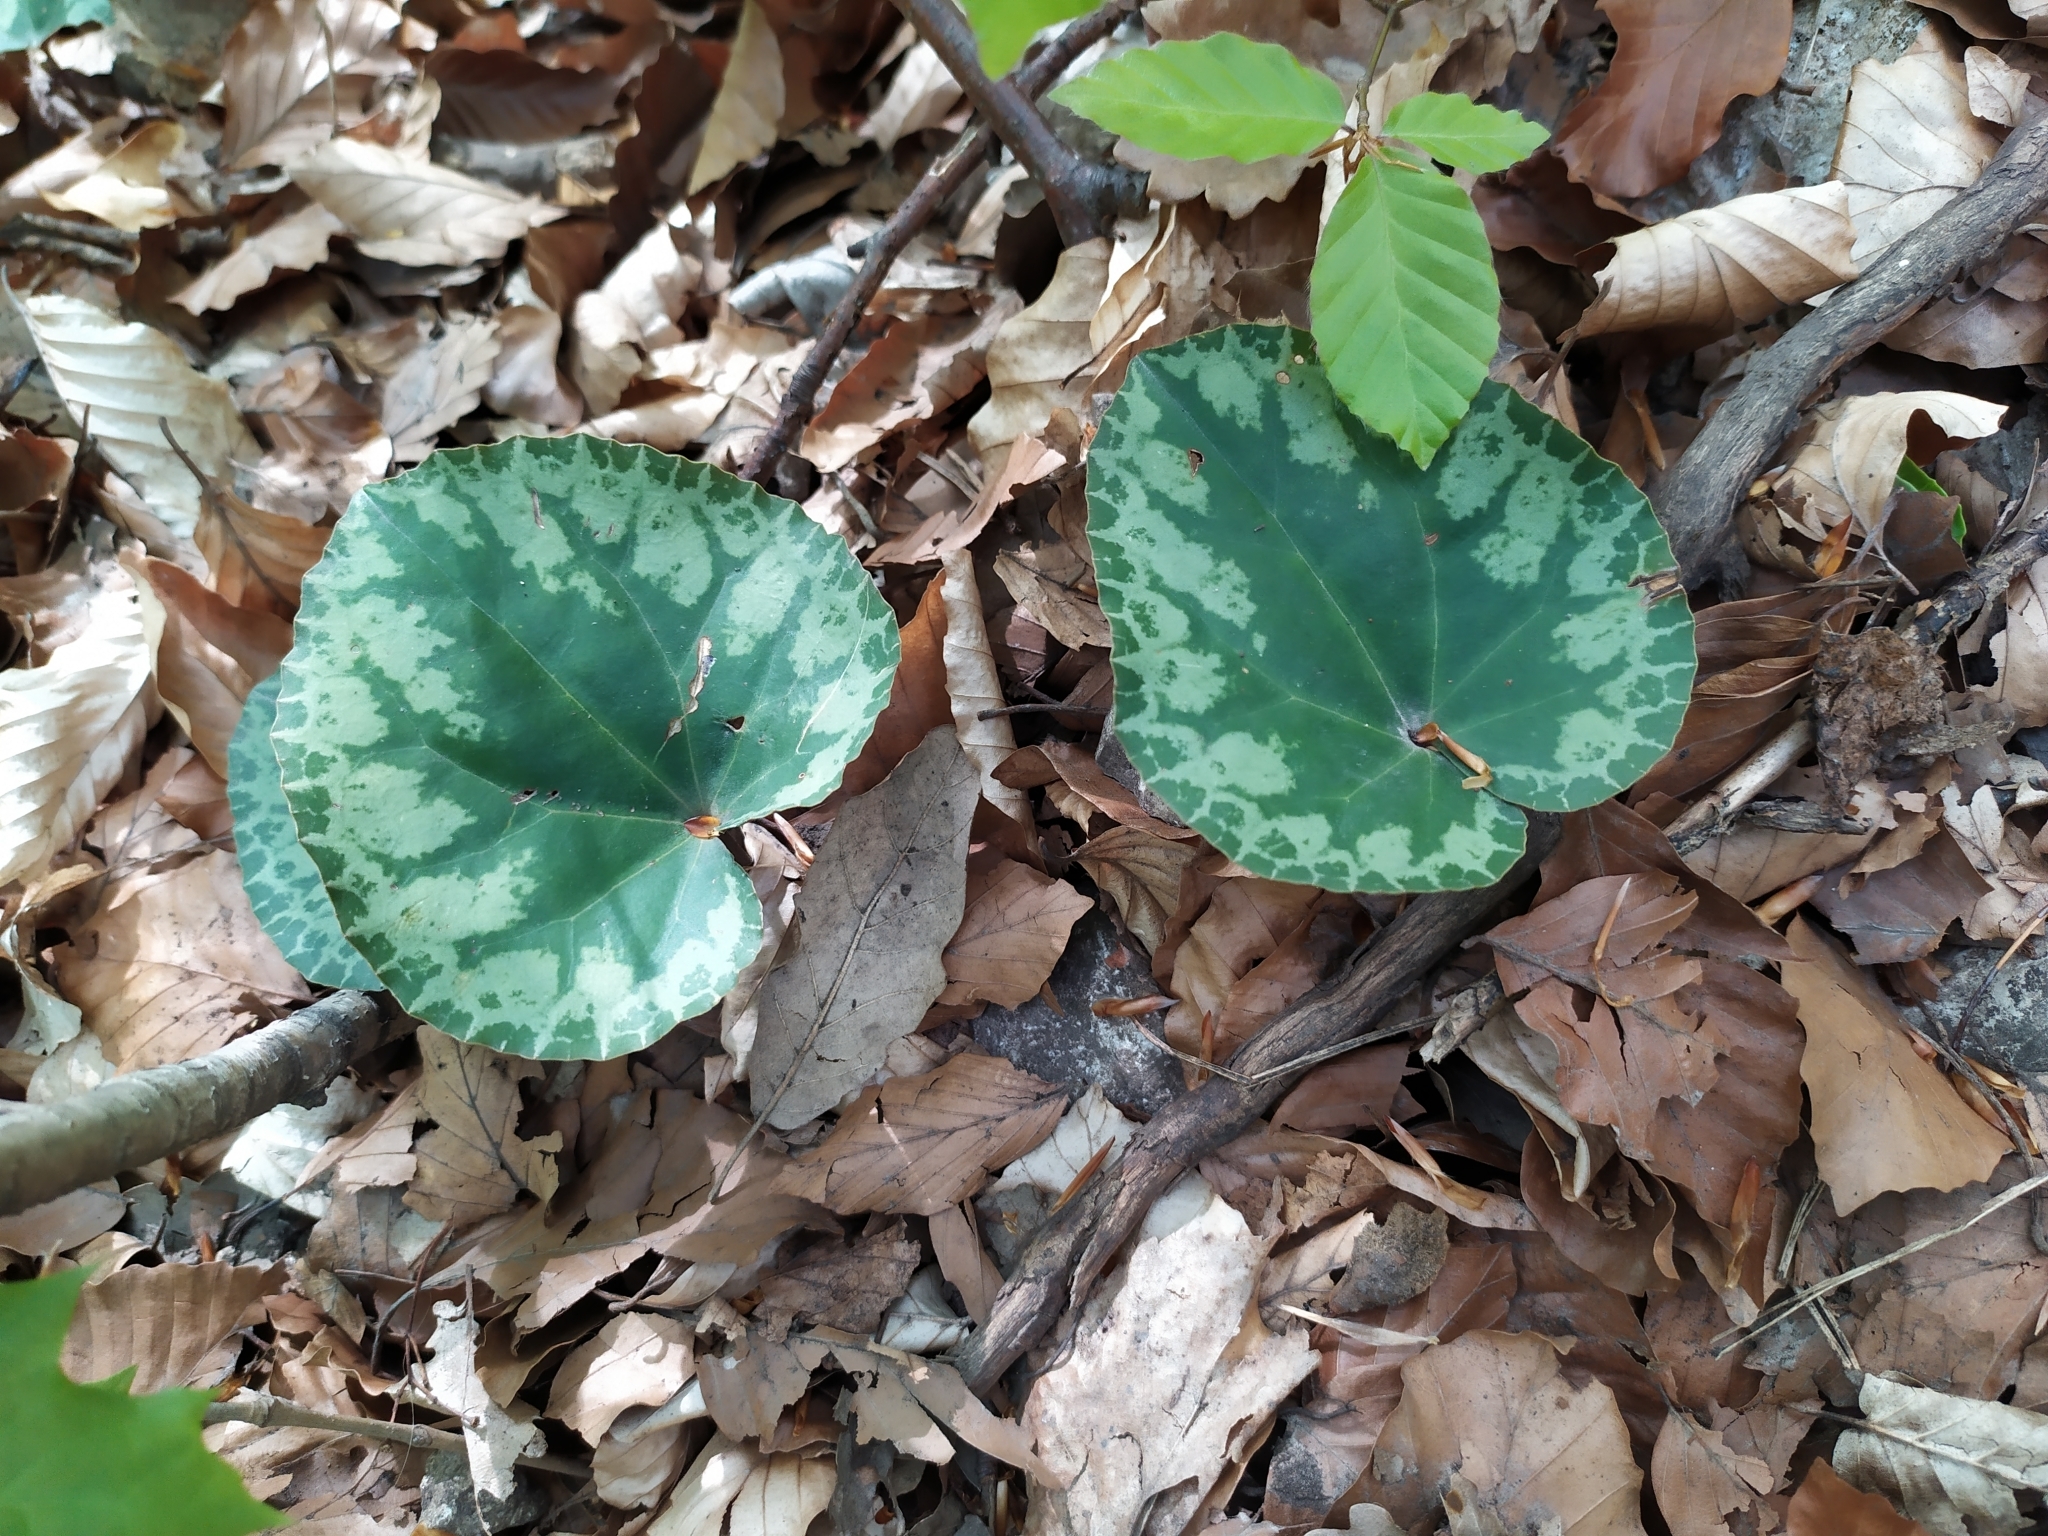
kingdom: Plantae
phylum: Tracheophyta
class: Magnoliopsida
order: Ericales
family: Primulaceae
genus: Cyclamen
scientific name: Cyclamen purpurascens
